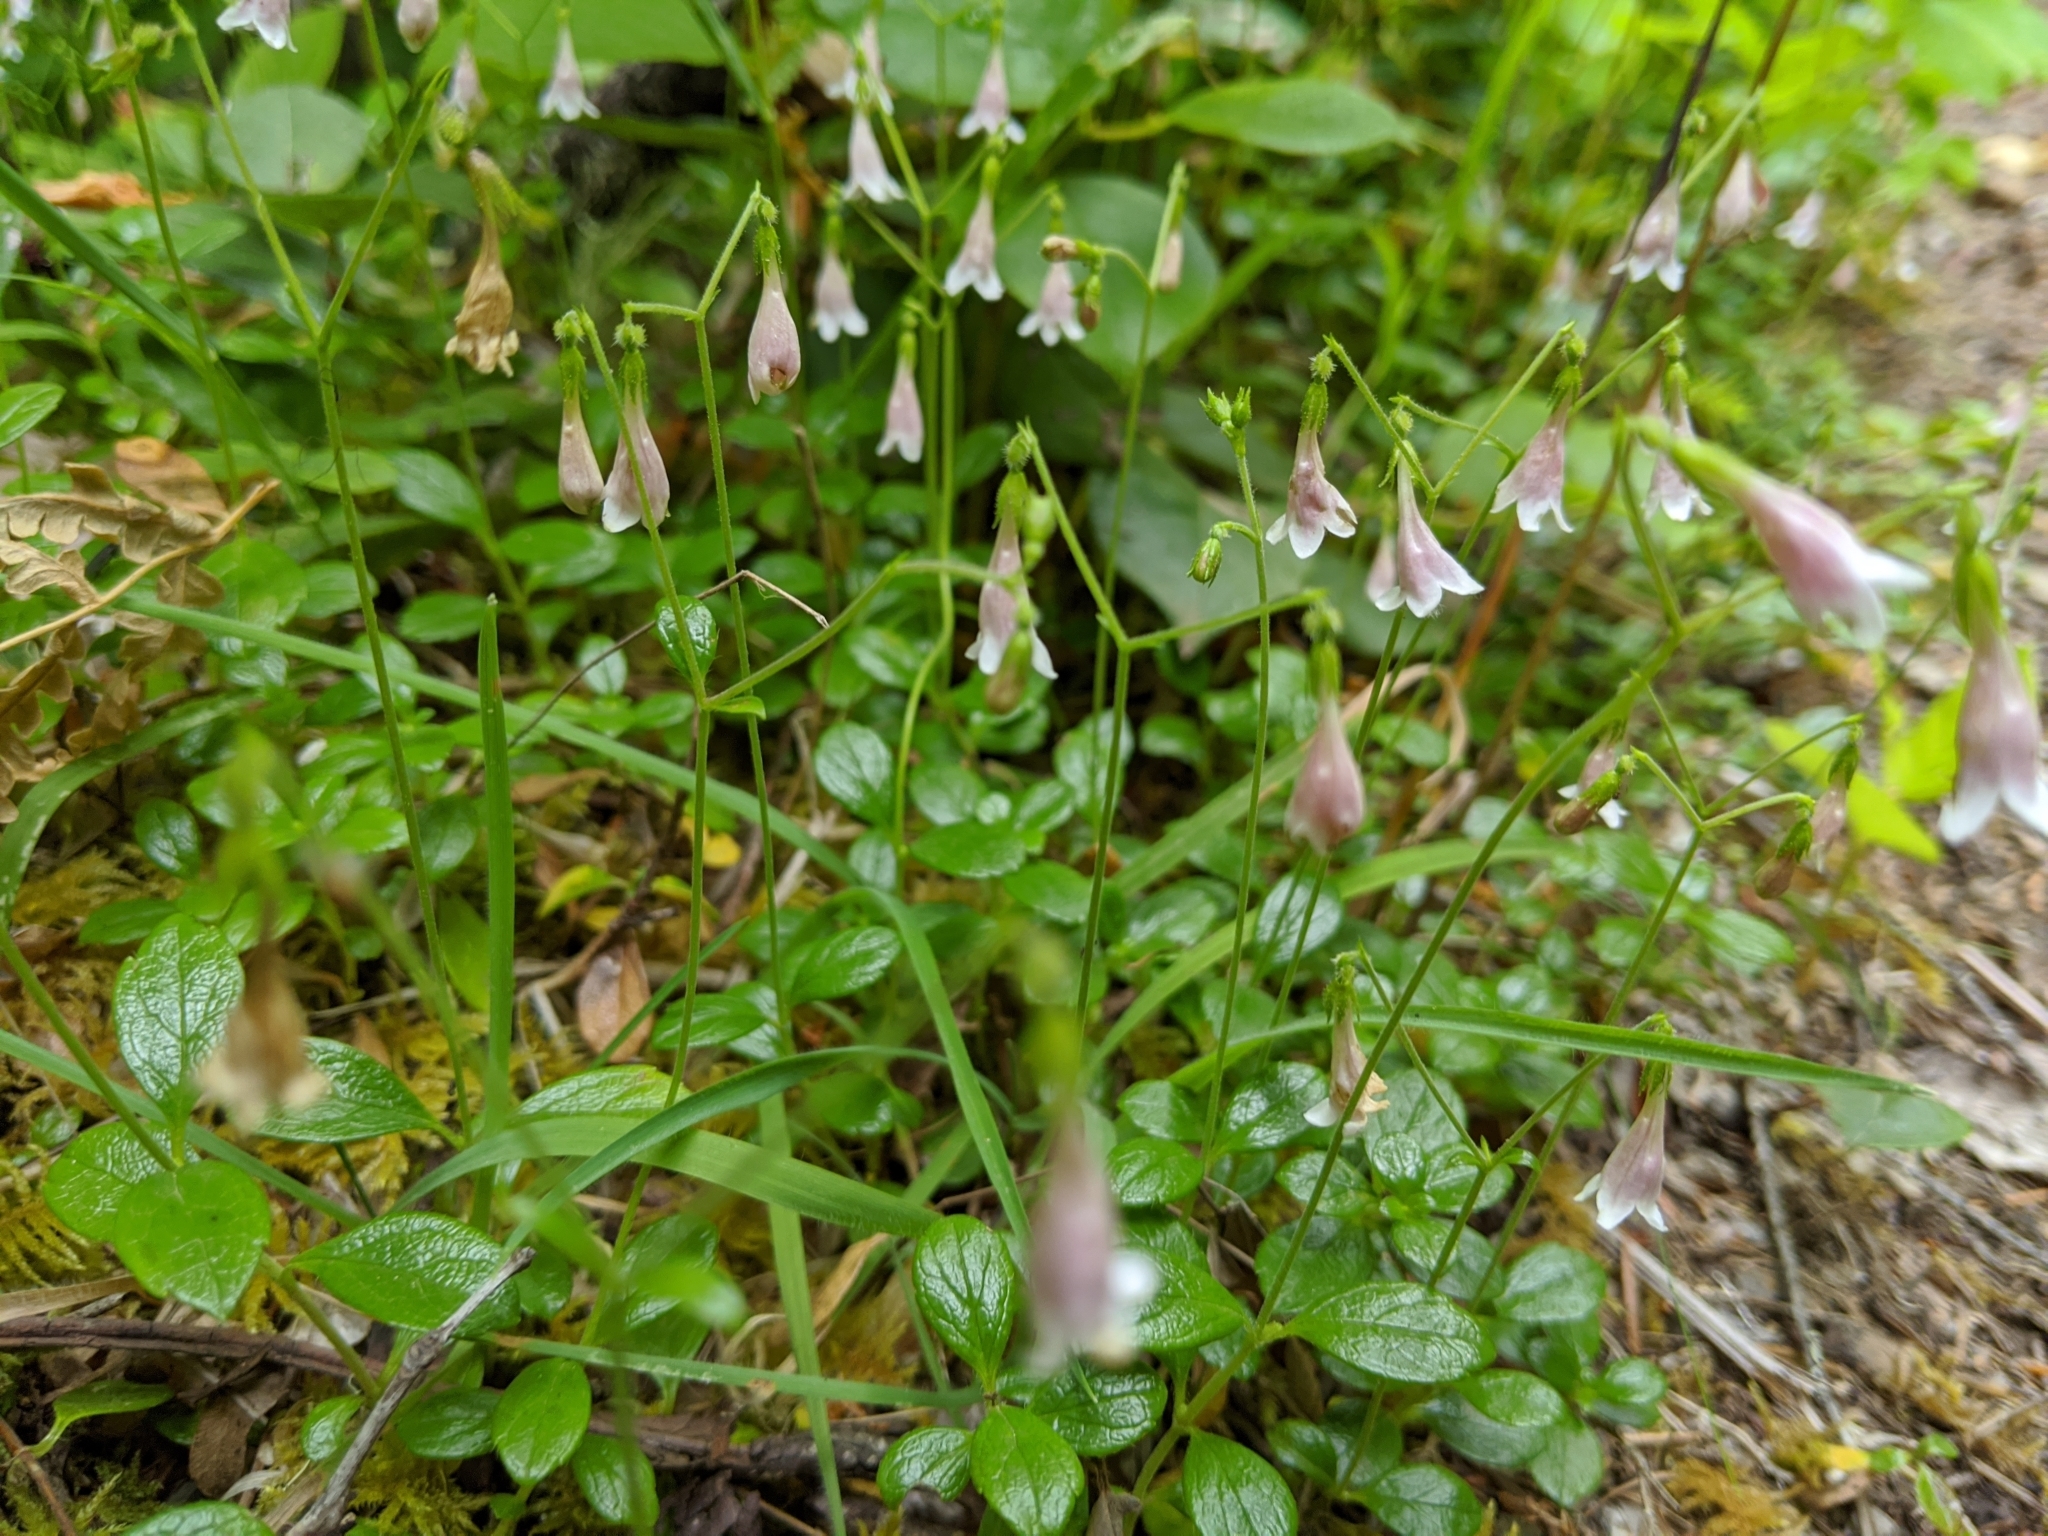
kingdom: Plantae
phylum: Tracheophyta
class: Magnoliopsida
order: Dipsacales
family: Caprifoliaceae
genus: Linnaea
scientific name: Linnaea borealis
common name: Twinflower
